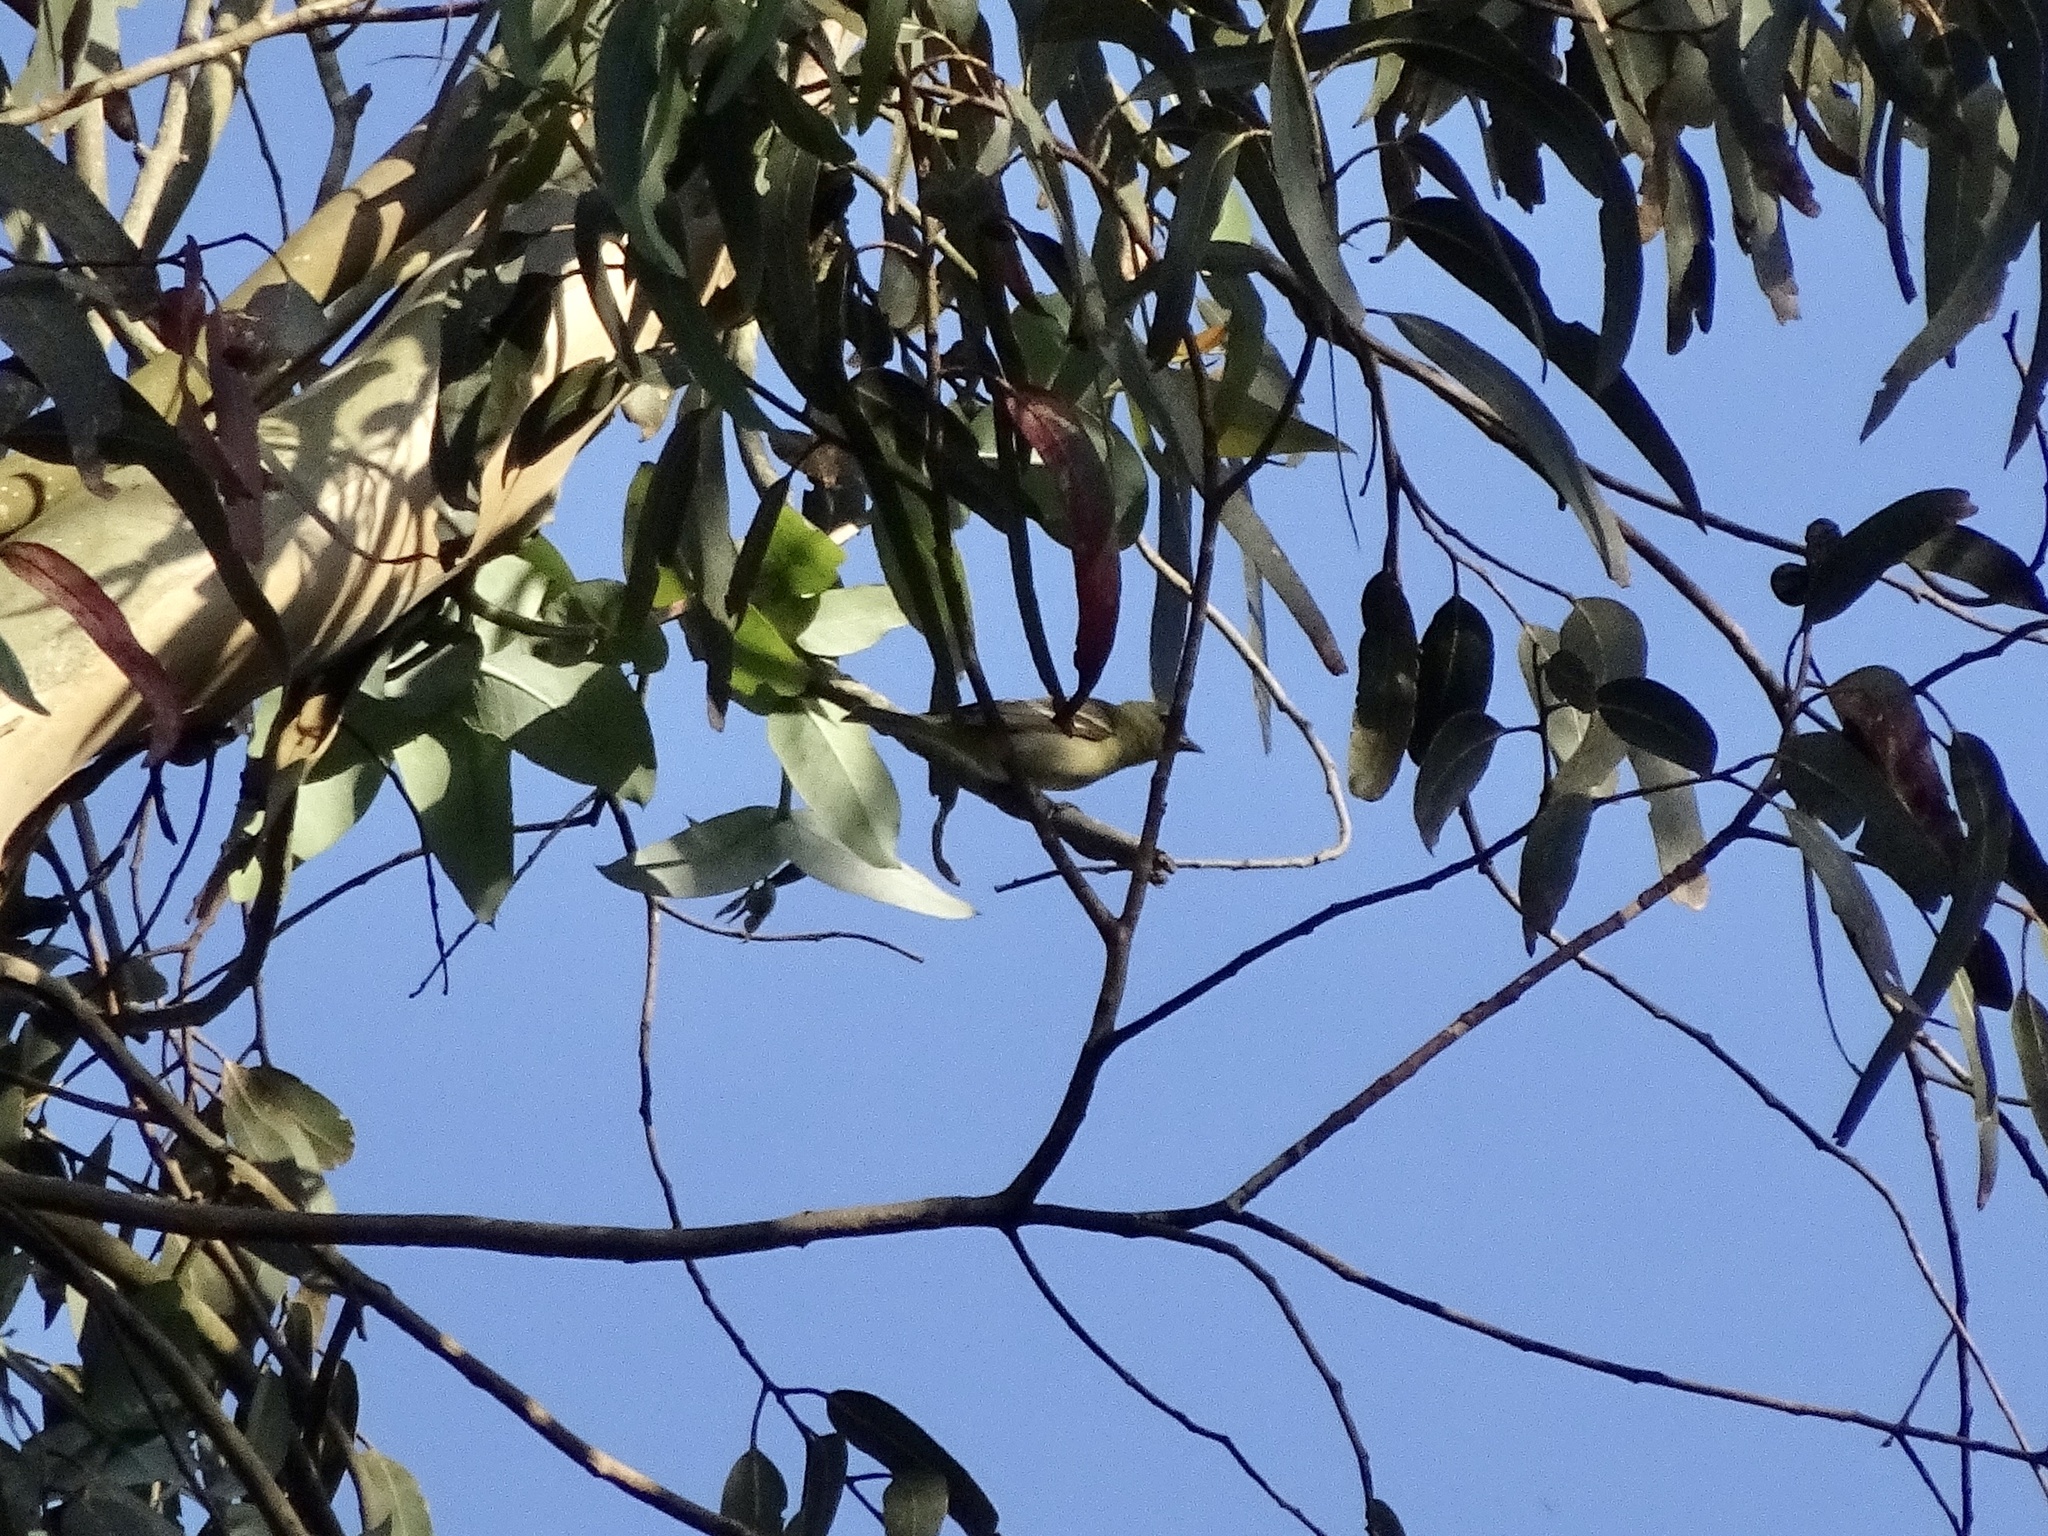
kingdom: Animalia
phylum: Chordata
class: Aves
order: Passeriformes
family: Cardinalidae
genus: Piranga
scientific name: Piranga ludoviciana
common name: Western tanager
